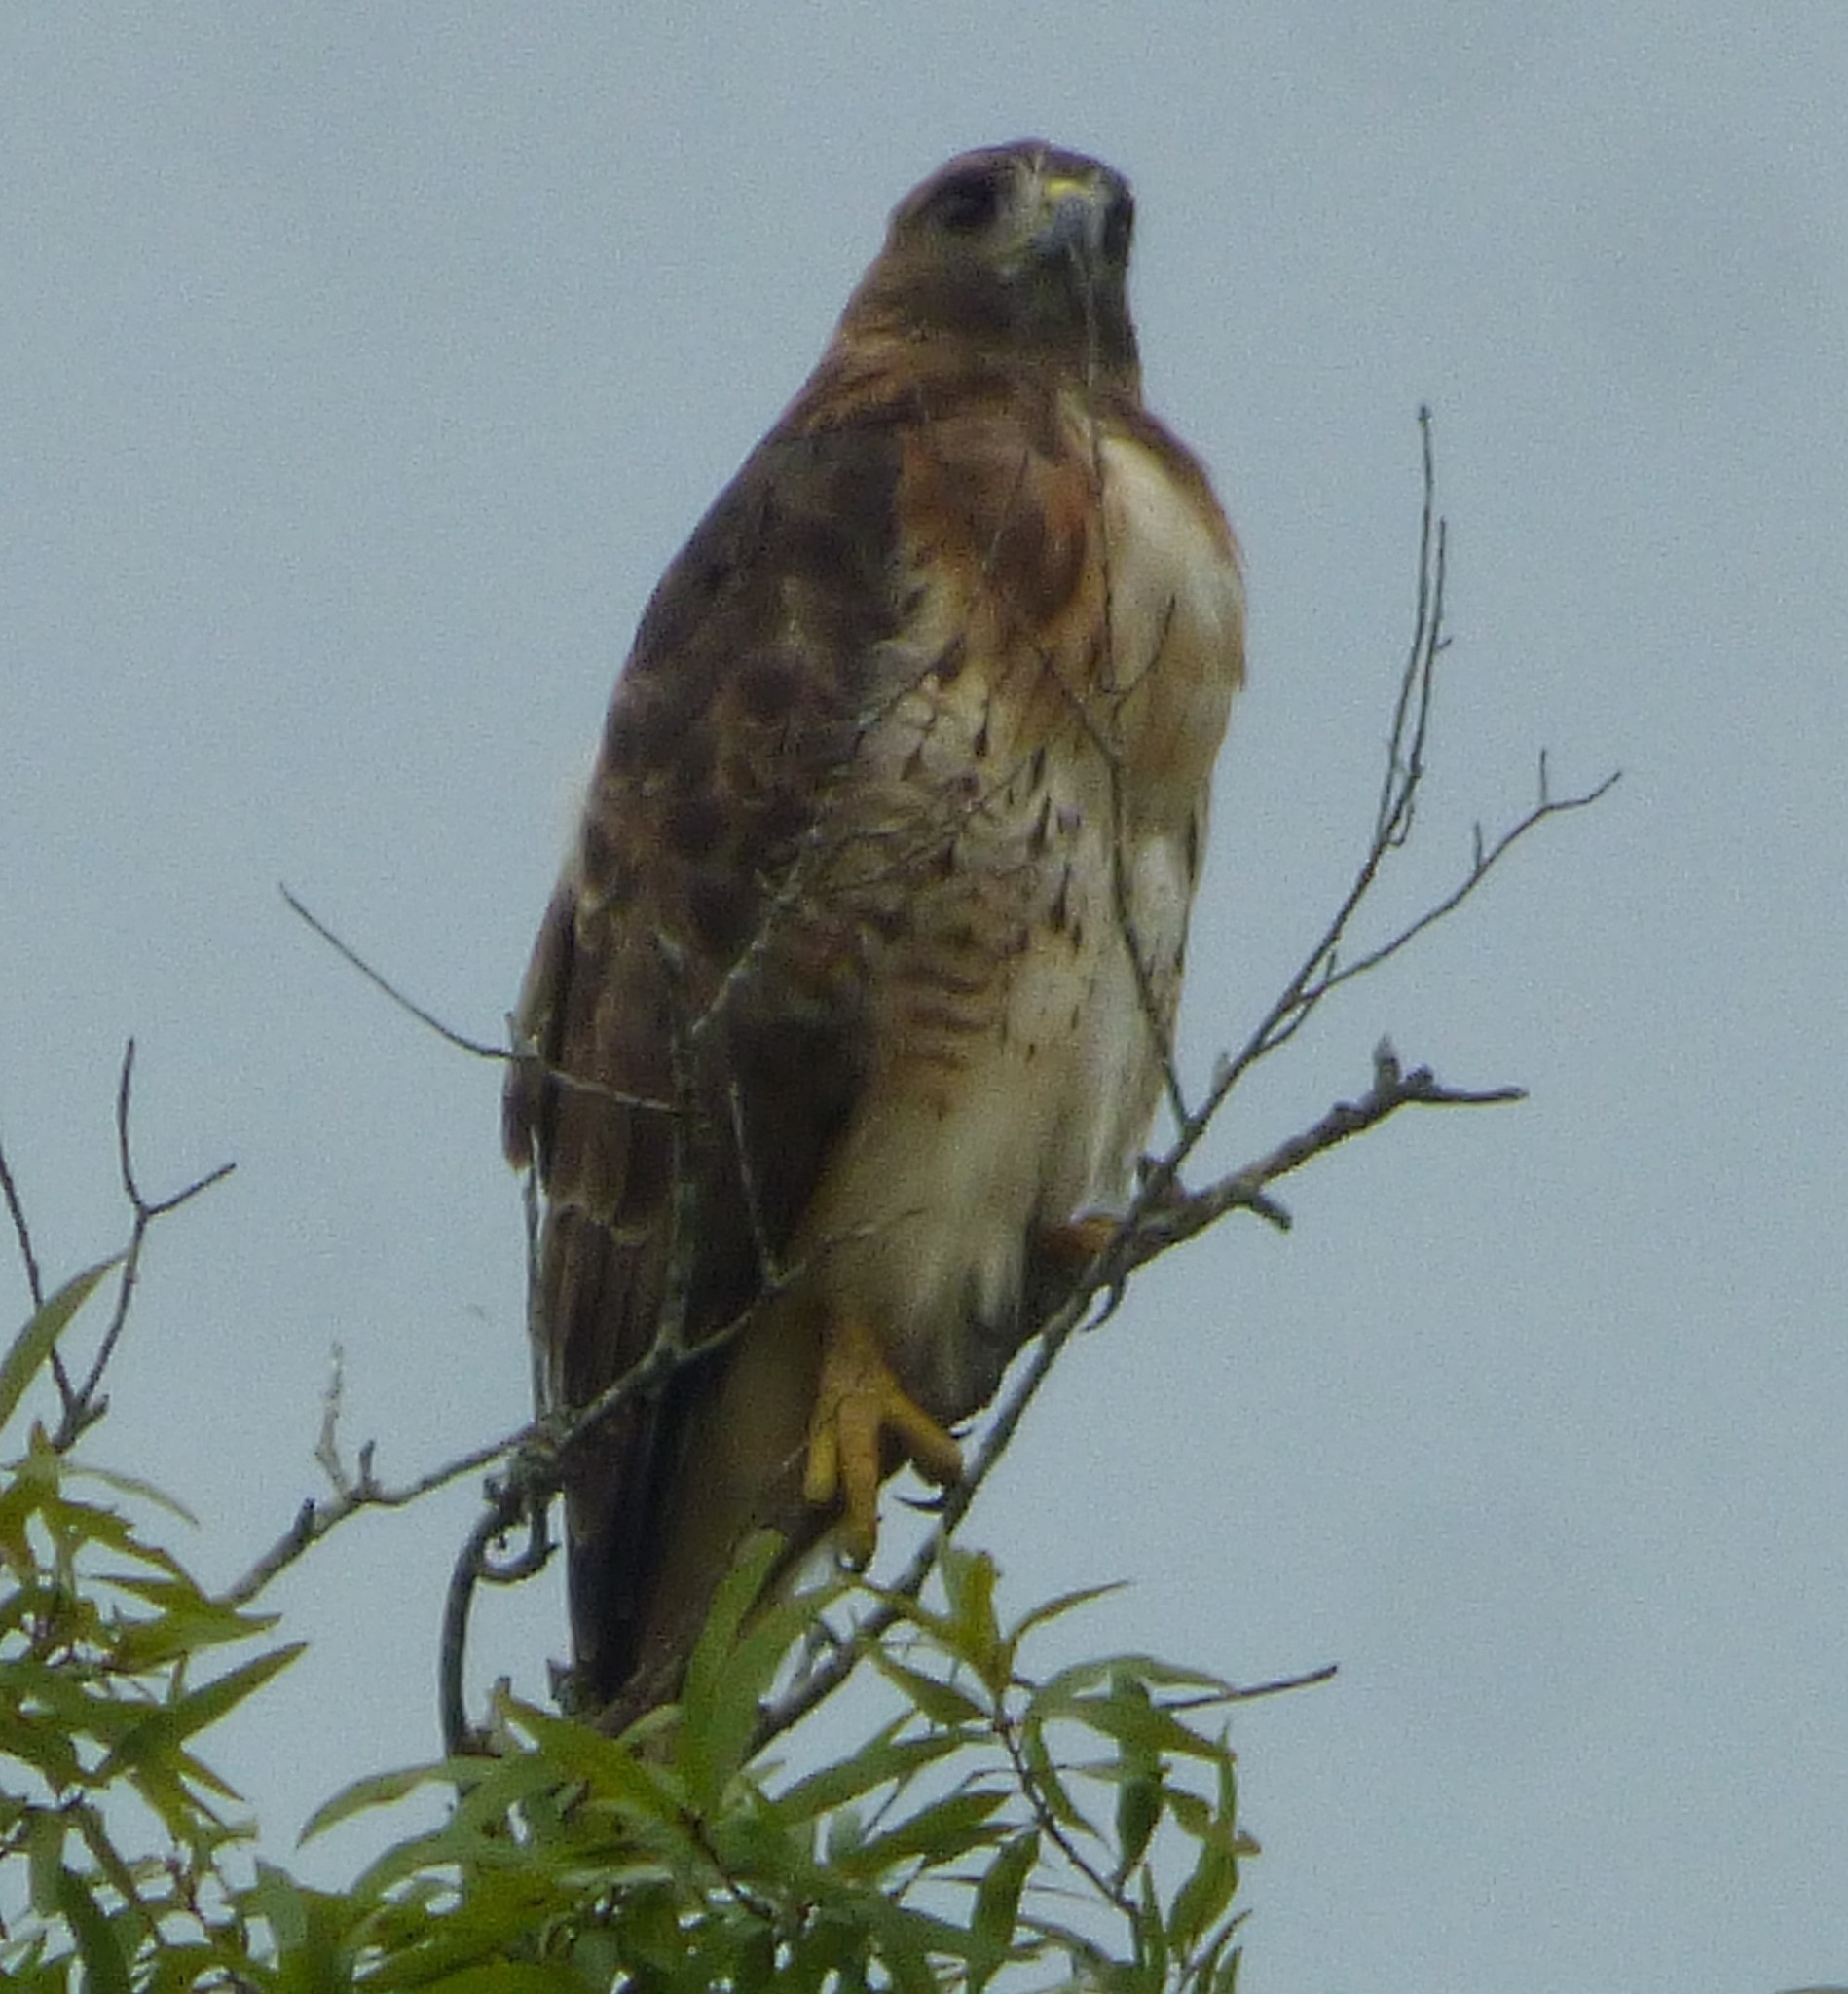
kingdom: Animalia
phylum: Chordata
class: Aves
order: Accipitriformes
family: Accipitridae
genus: Buteo
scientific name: Buteo jamaicensis
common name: Red-tailed hawk
